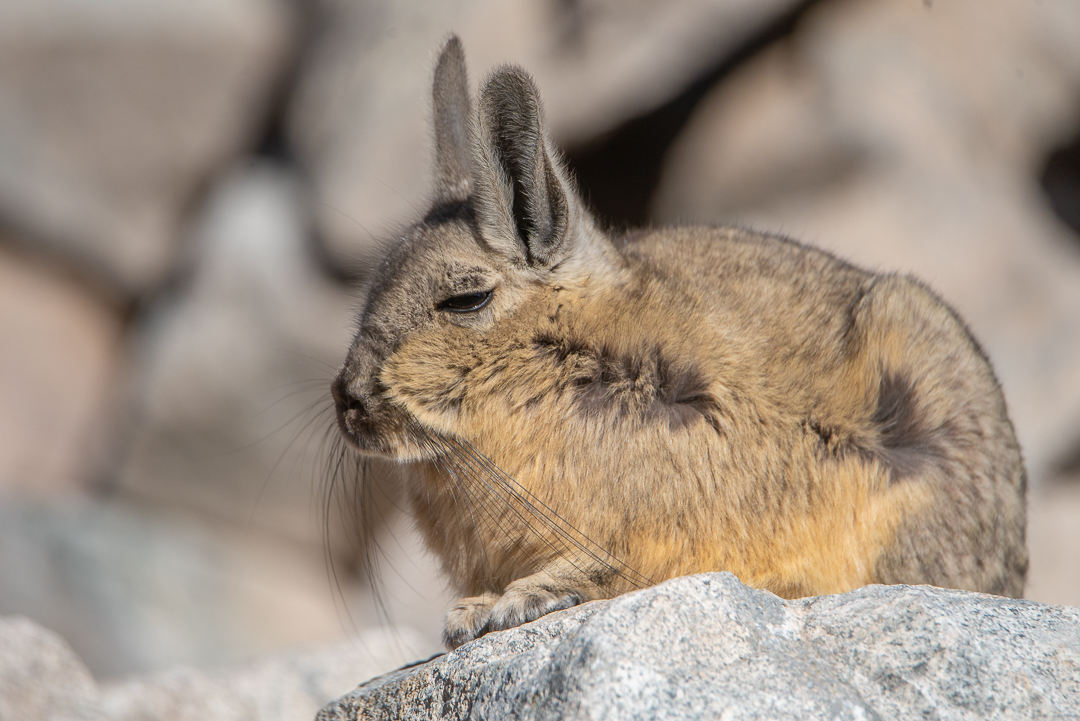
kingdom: Animalia
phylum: Chordata
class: Mammalia
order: Rodentia
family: Chinchillidae
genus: Lagidium
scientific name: Lagidium viscacia
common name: Southern viscacha
